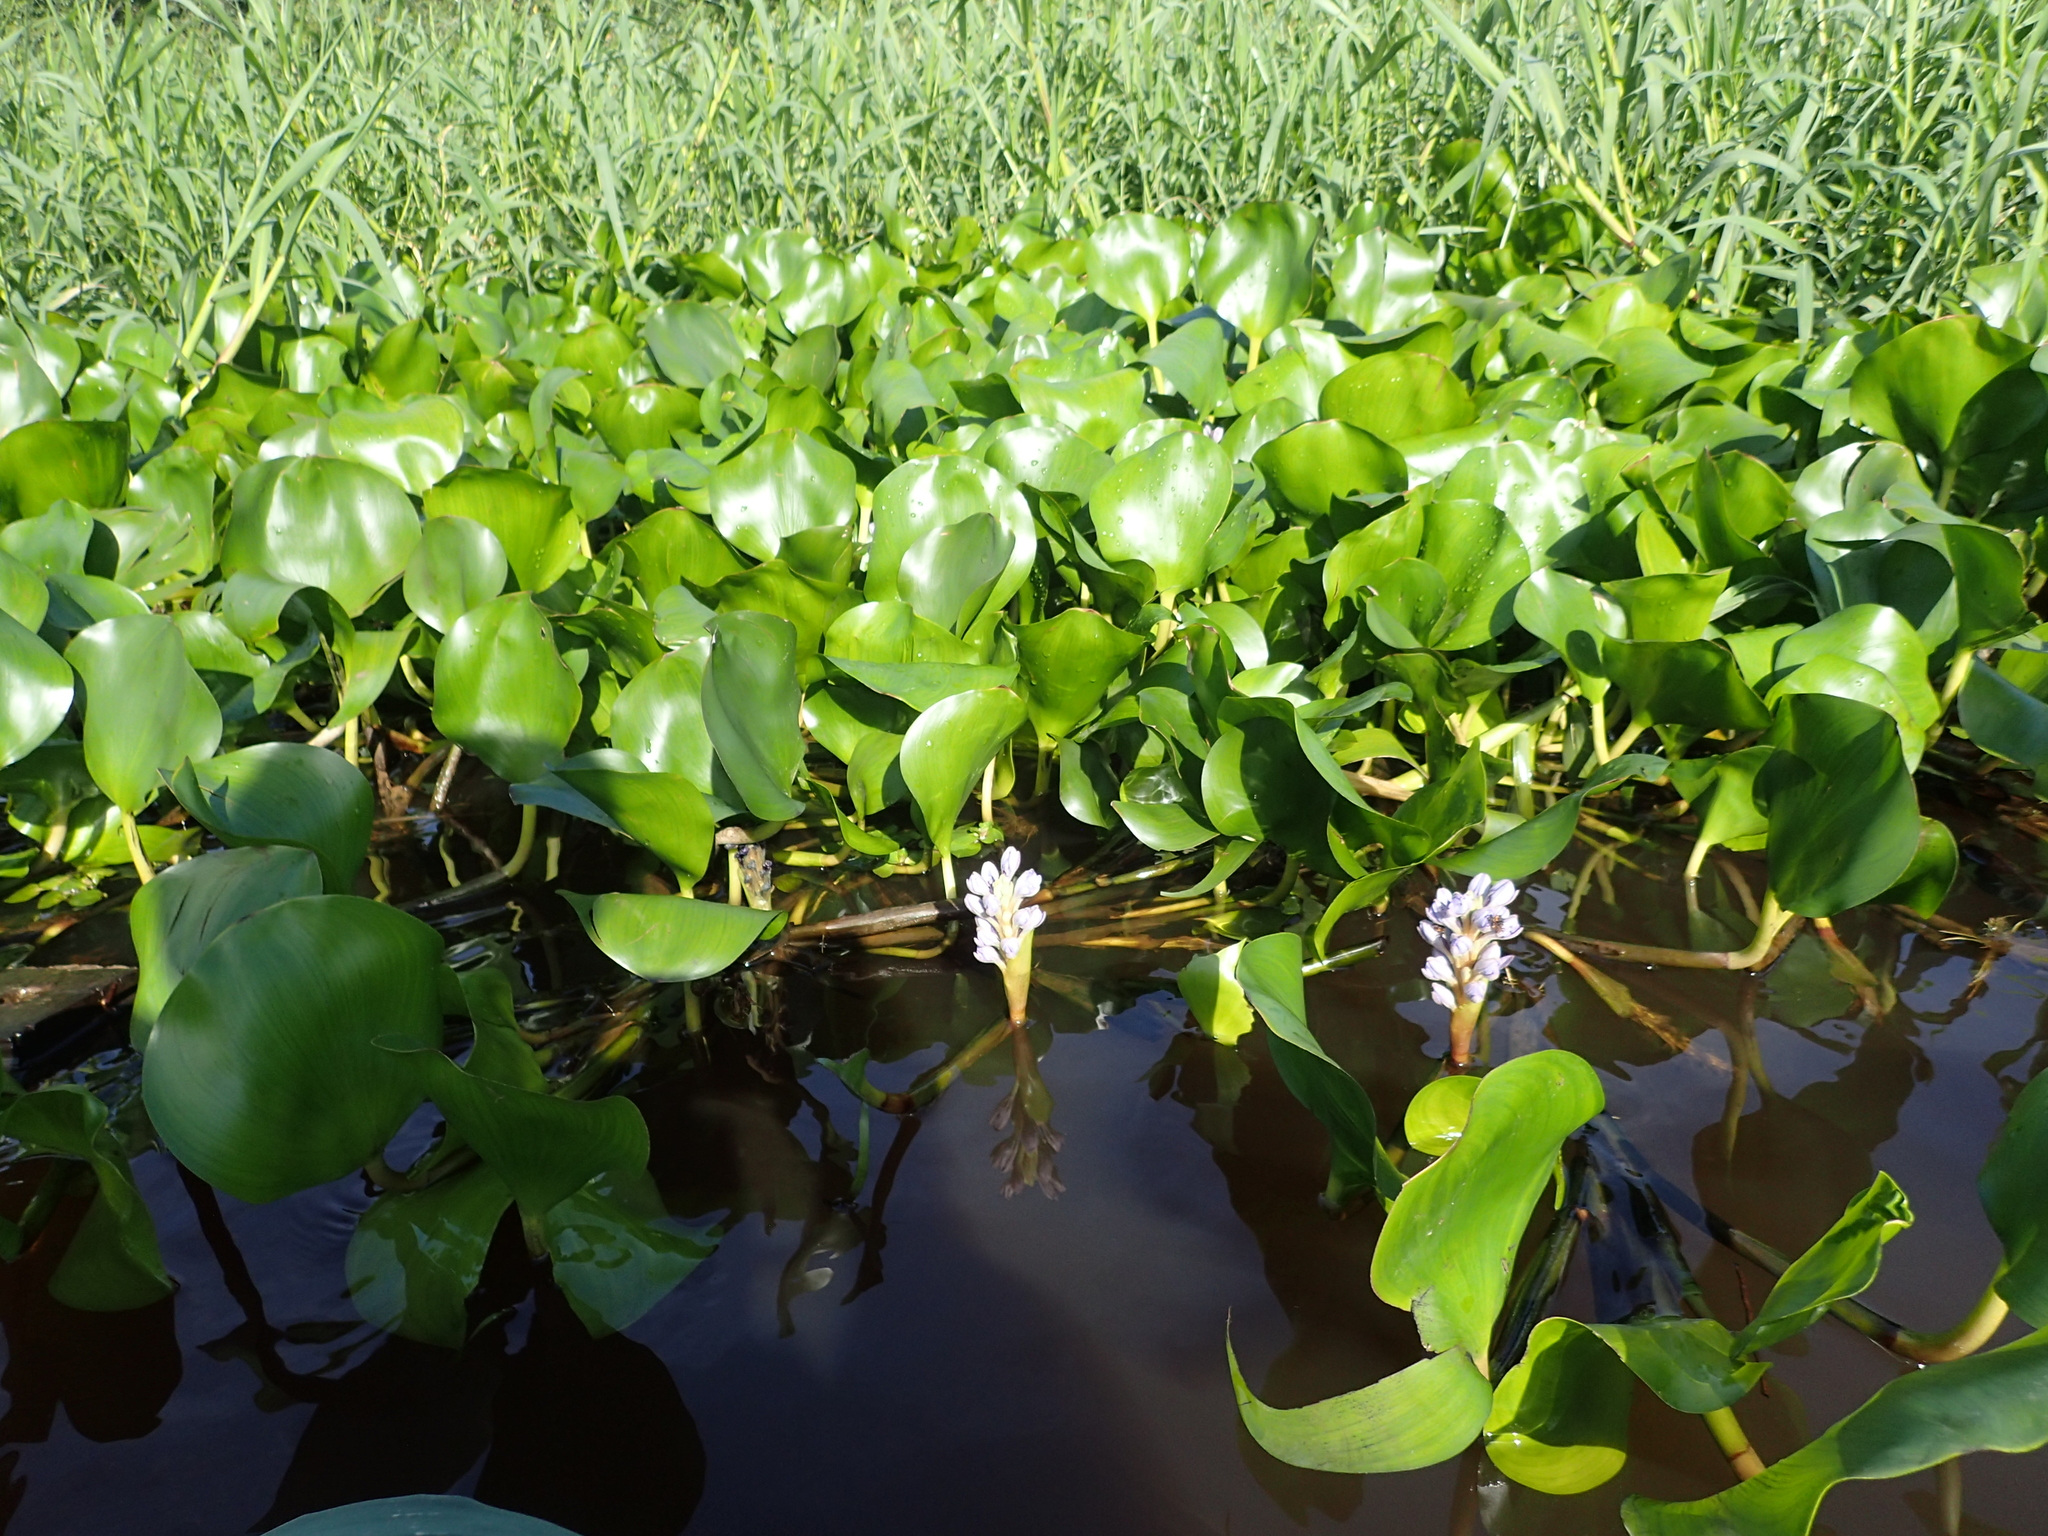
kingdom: Plantae
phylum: Tracheophyta
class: Liliopsida
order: Commelinales
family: Pontederiaceae
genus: Pontederia
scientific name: Pontederia azurea
